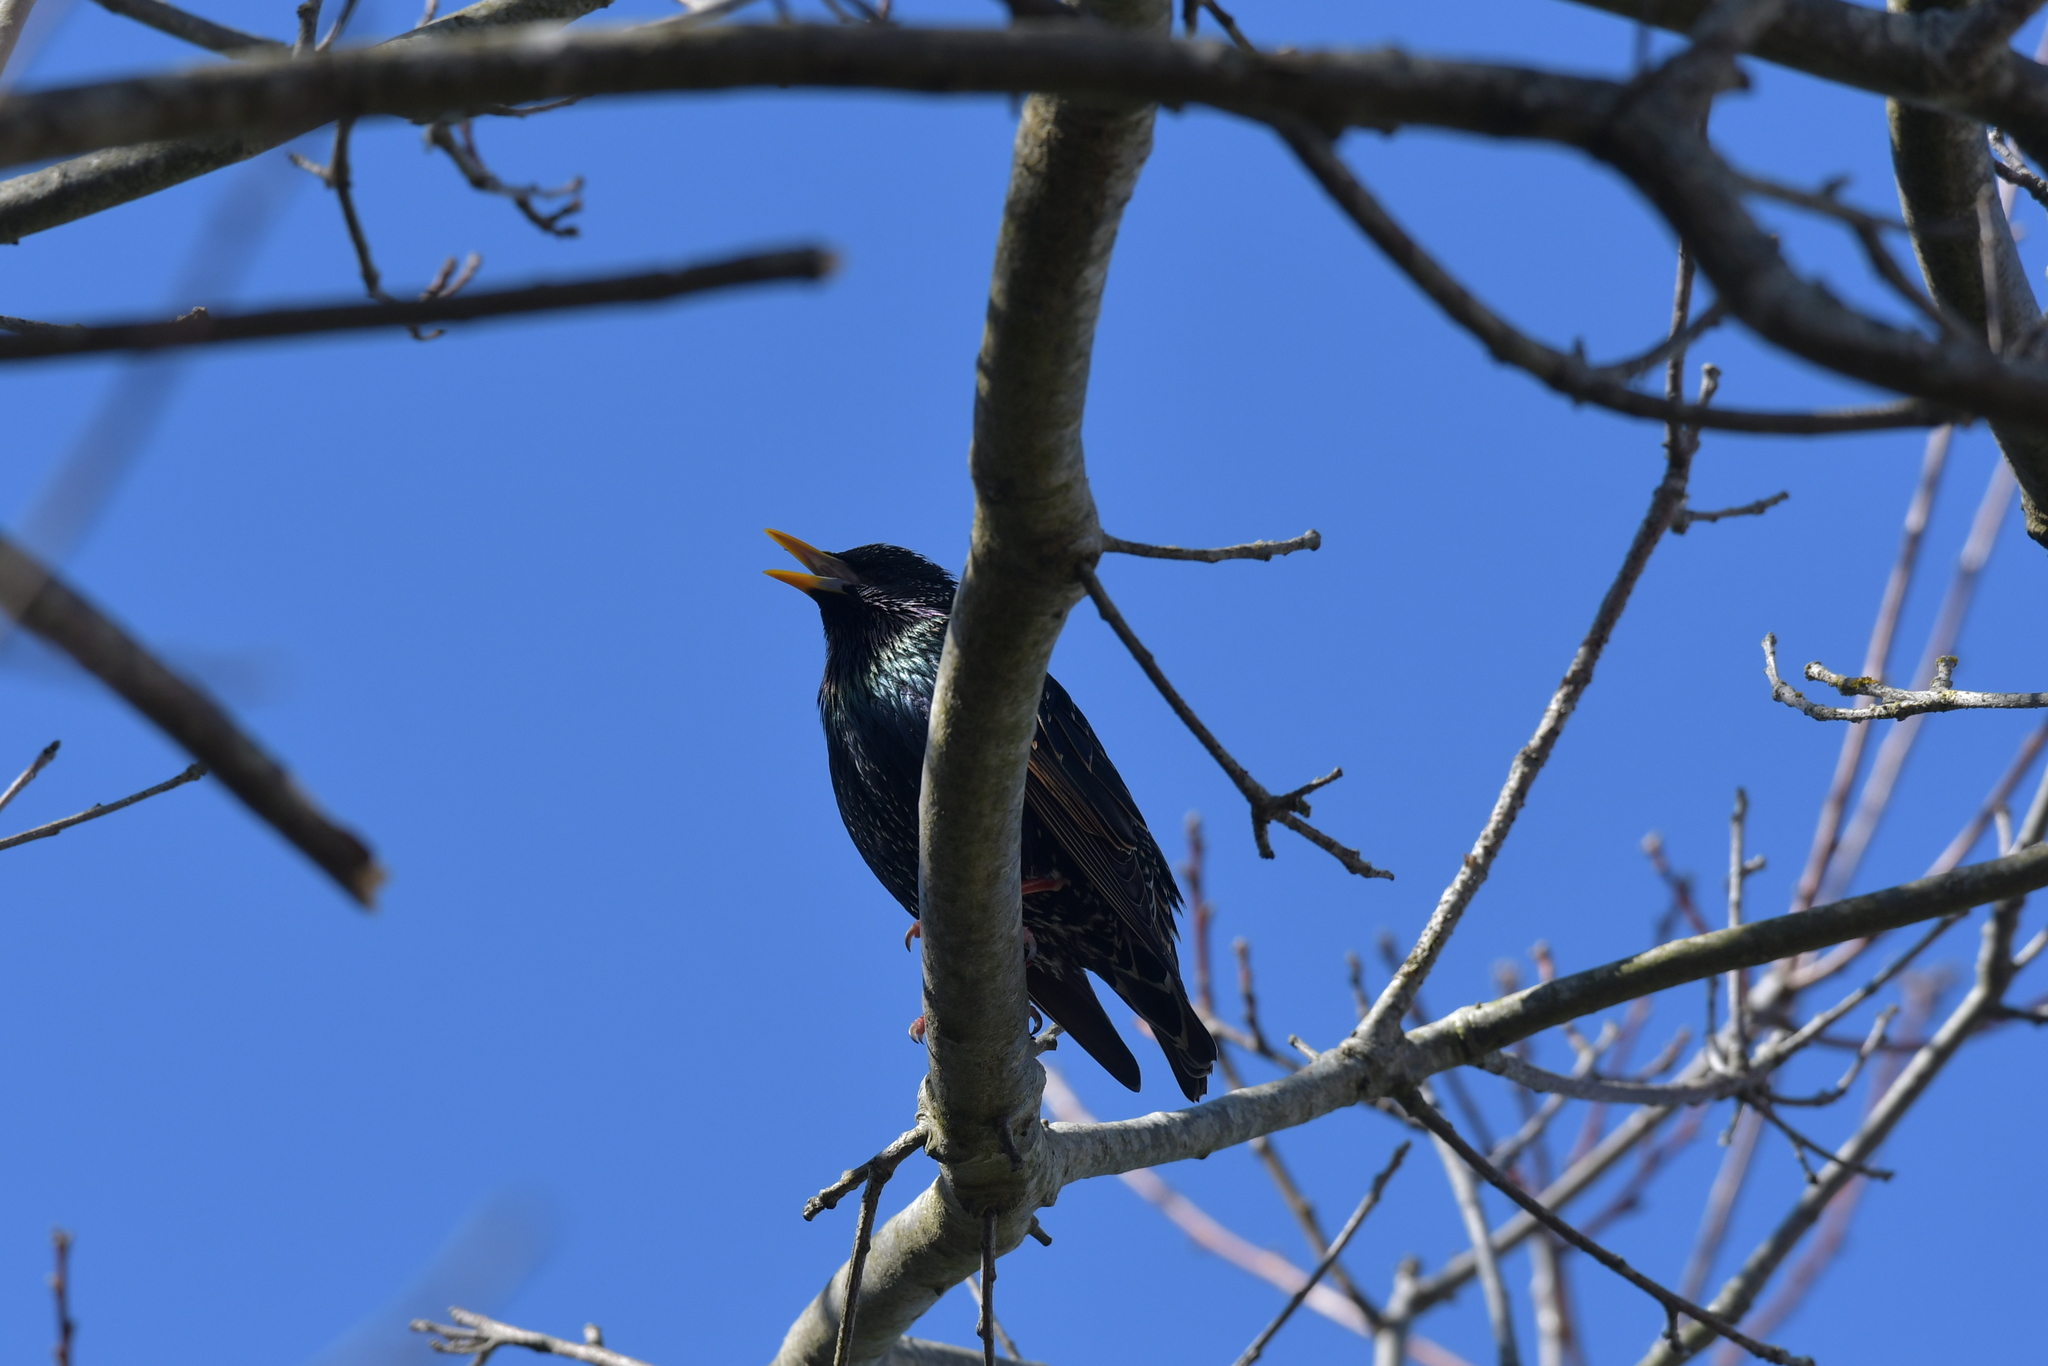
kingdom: Animalia
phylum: Chordata
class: Aves
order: Passeriformes
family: Sturnidae
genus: Sturnus
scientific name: Sturnus vulgaris
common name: Common starling
